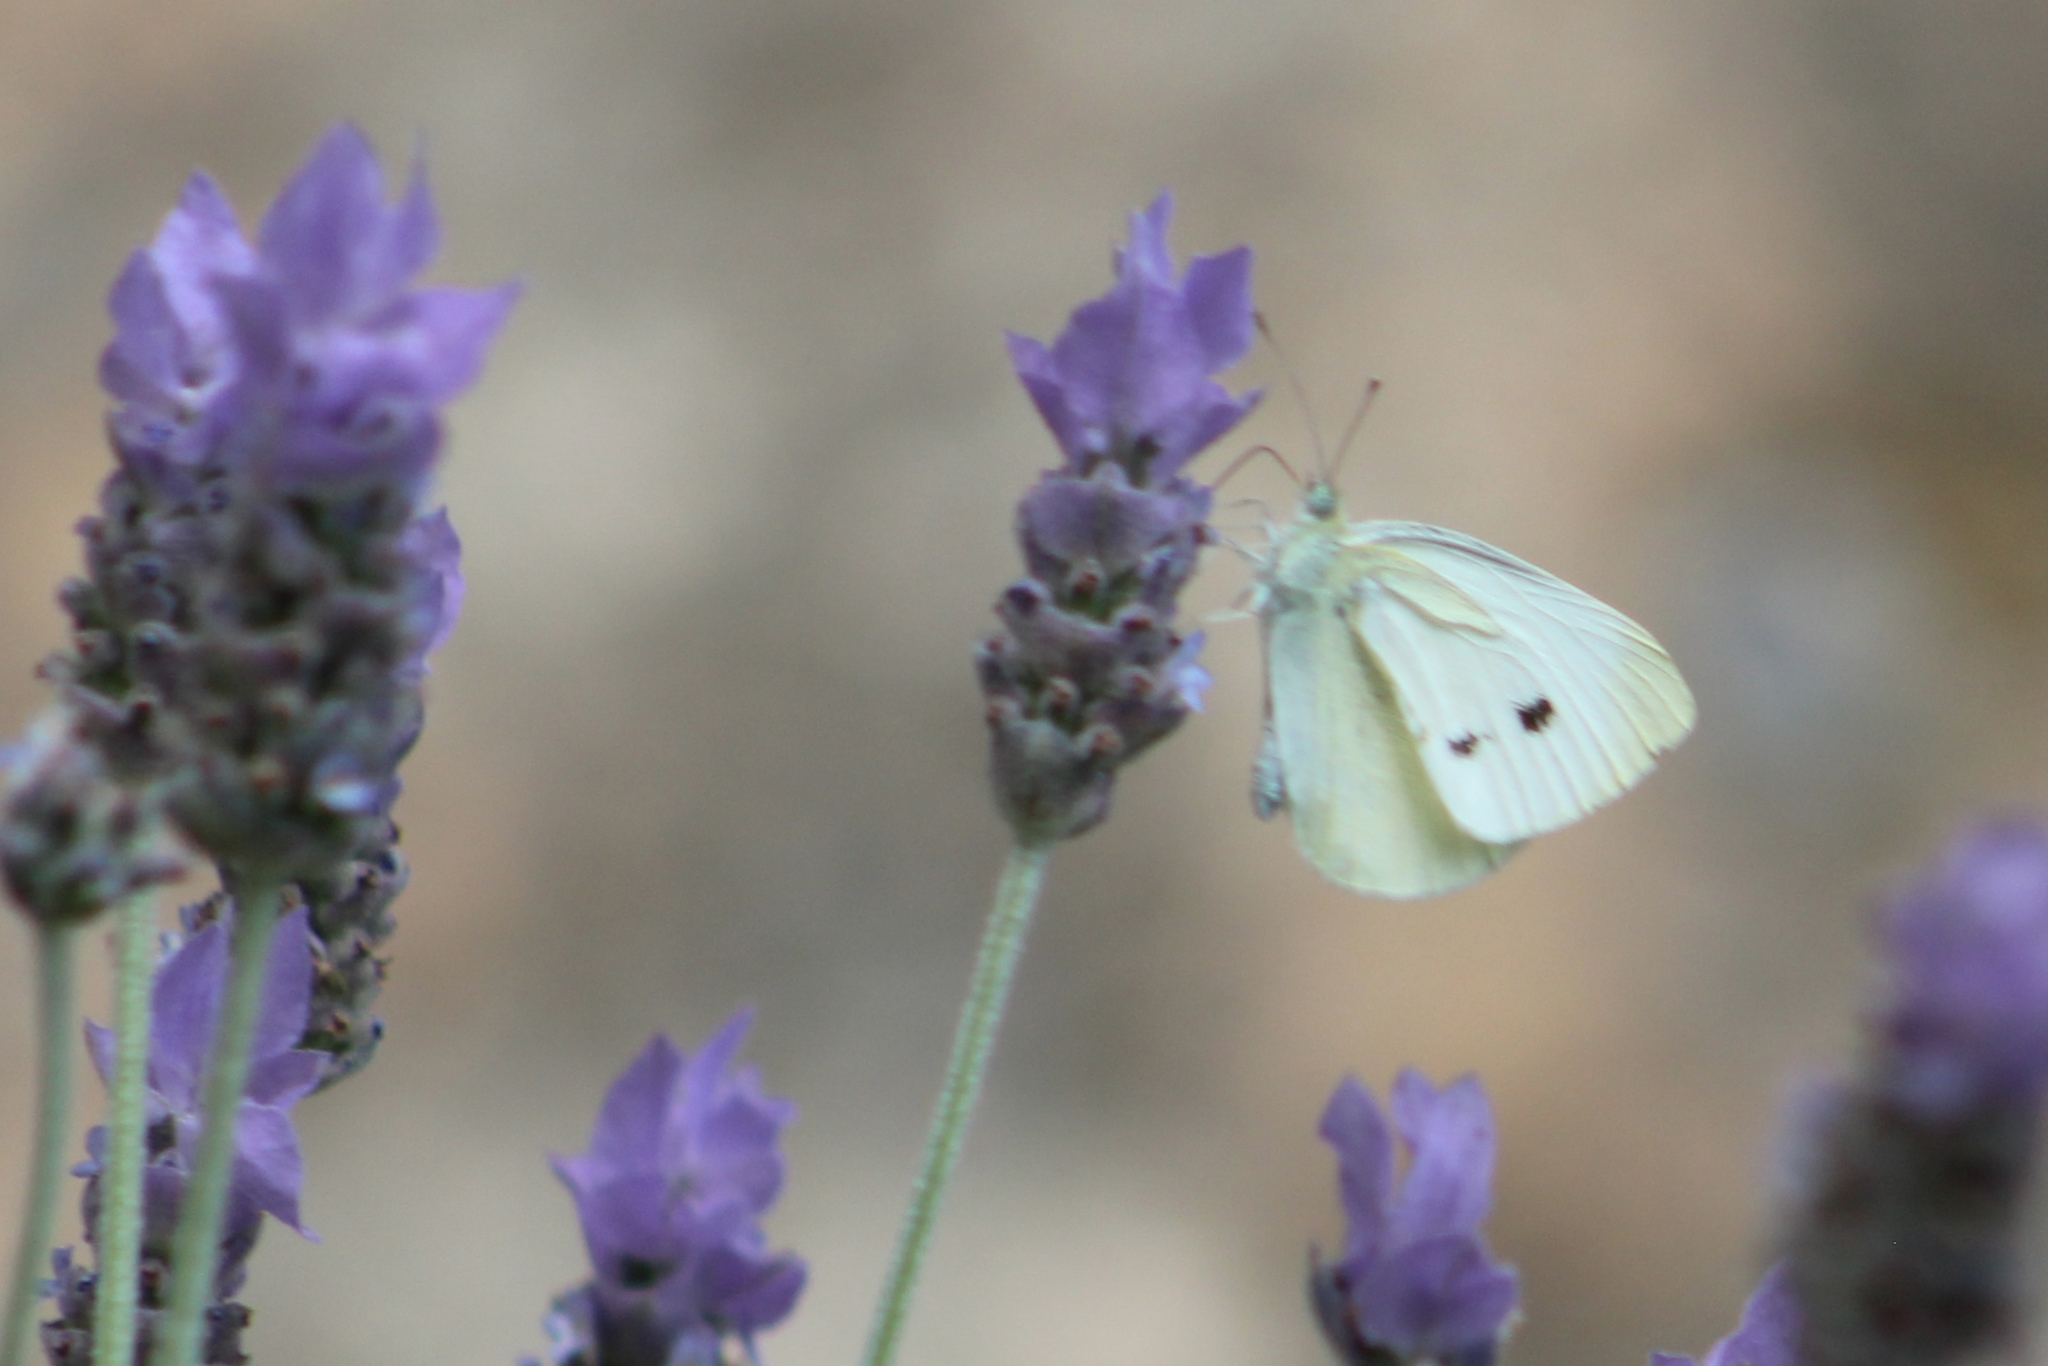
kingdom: Animalia
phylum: Arthropoda
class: Insecta
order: Lepidoptera
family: Pieridae
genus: Pieris
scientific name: Pieris rapae
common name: Small white
